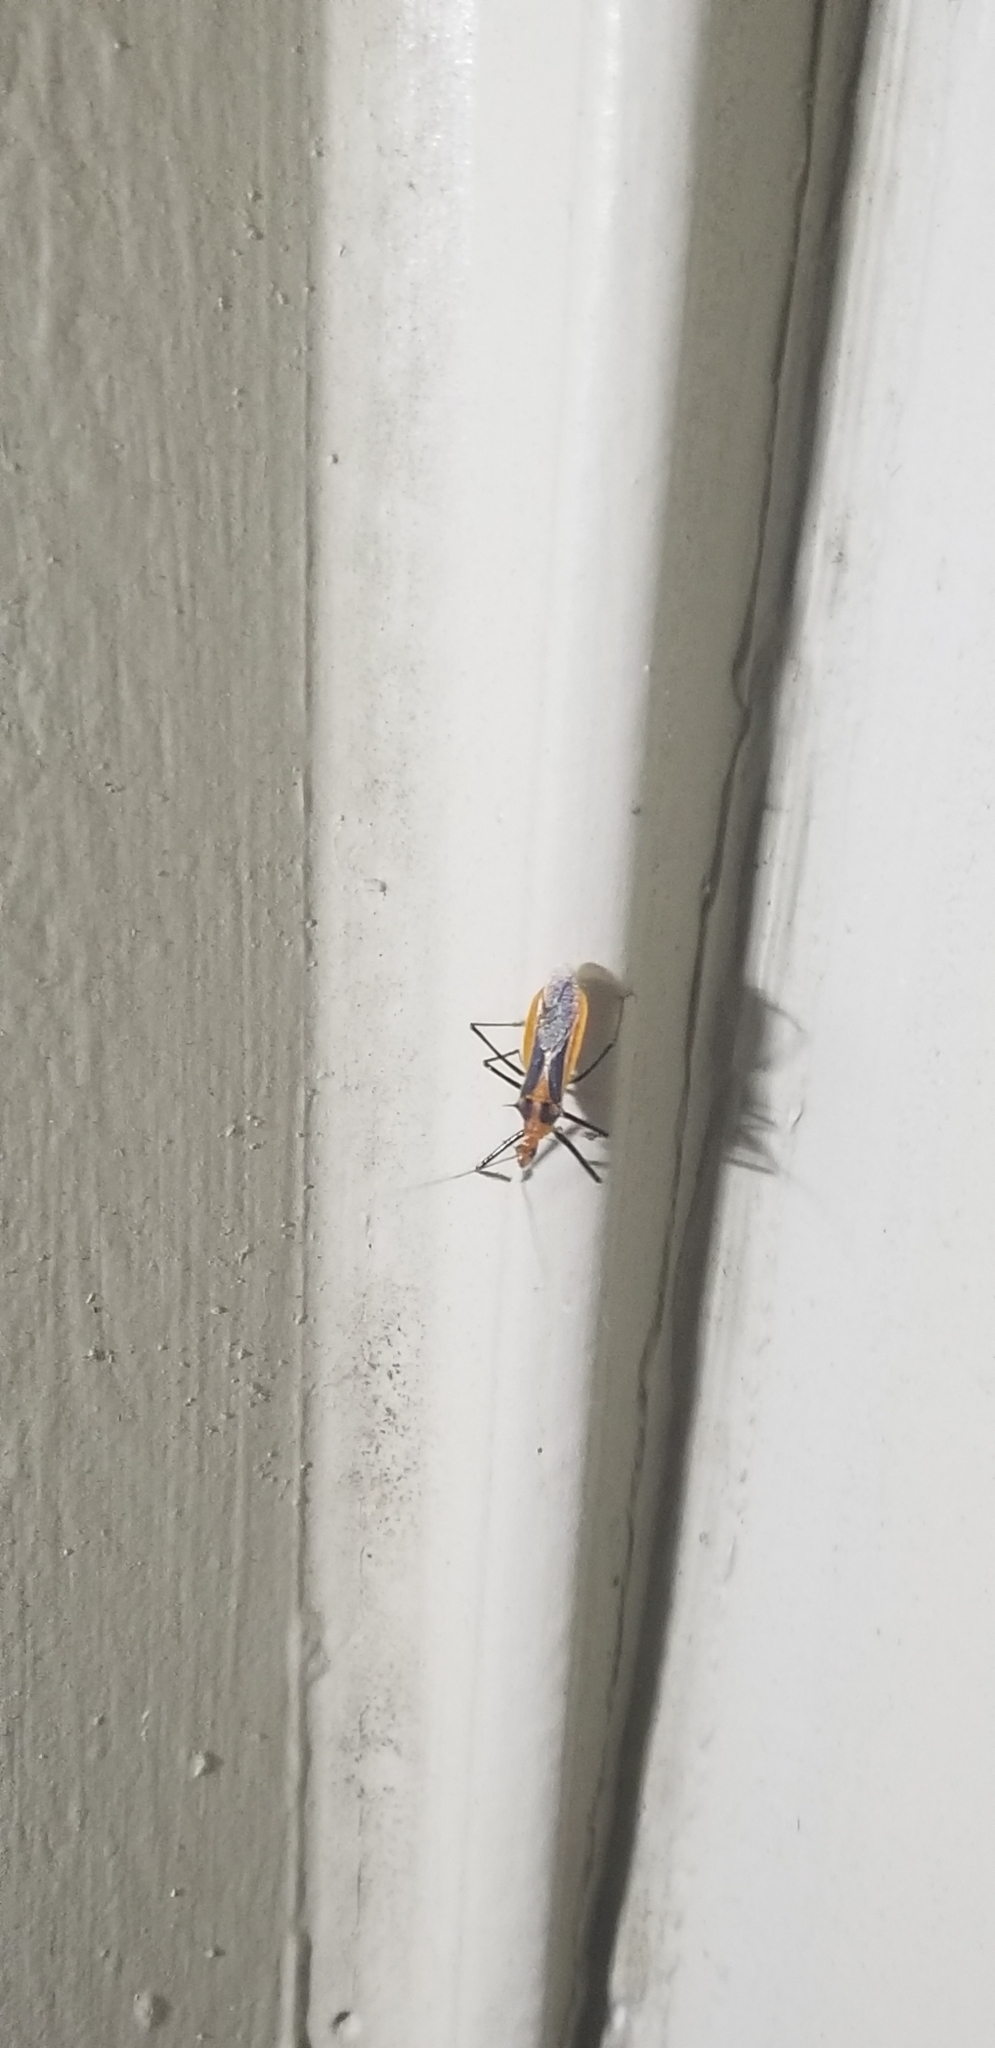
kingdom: Animalia
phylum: Arthropoda
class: Insecta
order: Hemiptera
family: Reduviidae
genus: Repipta
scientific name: Repipta taurus
